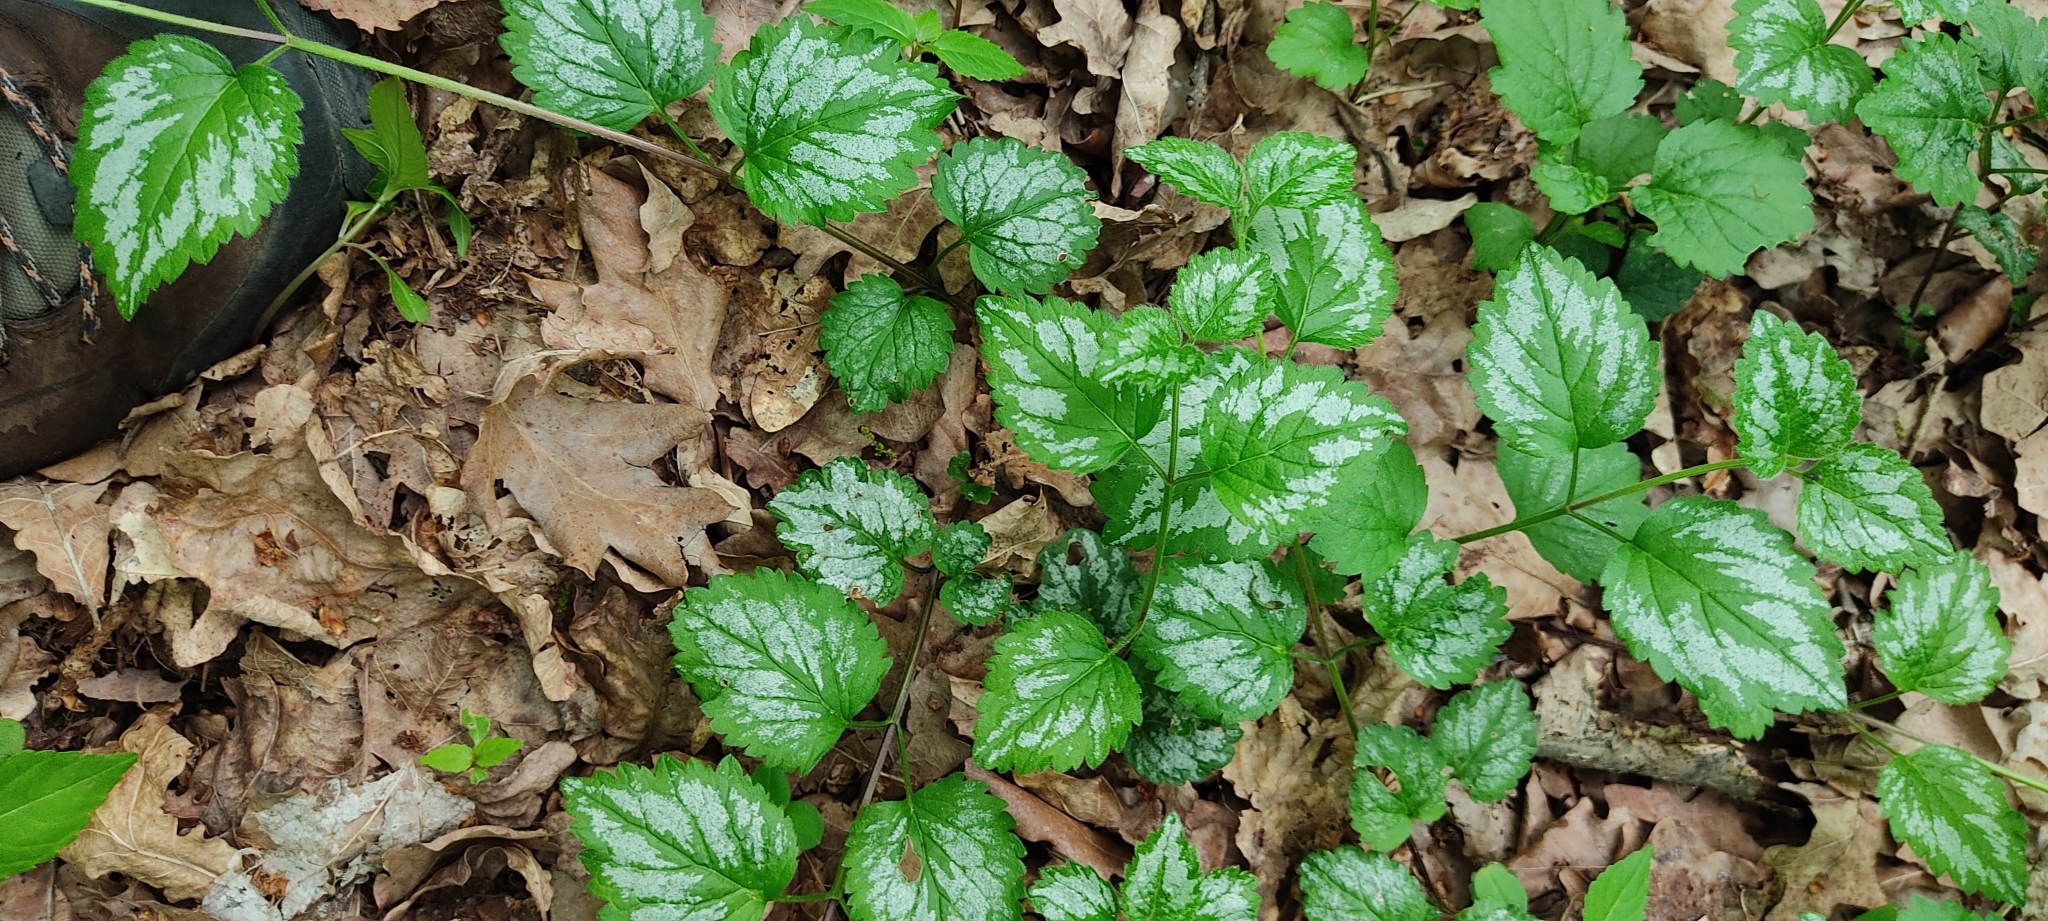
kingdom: Plantae
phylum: Tracheophyta
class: Magnoliopsida
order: Lamiales
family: Lamiaceae
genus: Lamium
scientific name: Lamium galeobdolon
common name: Yellow archangel
